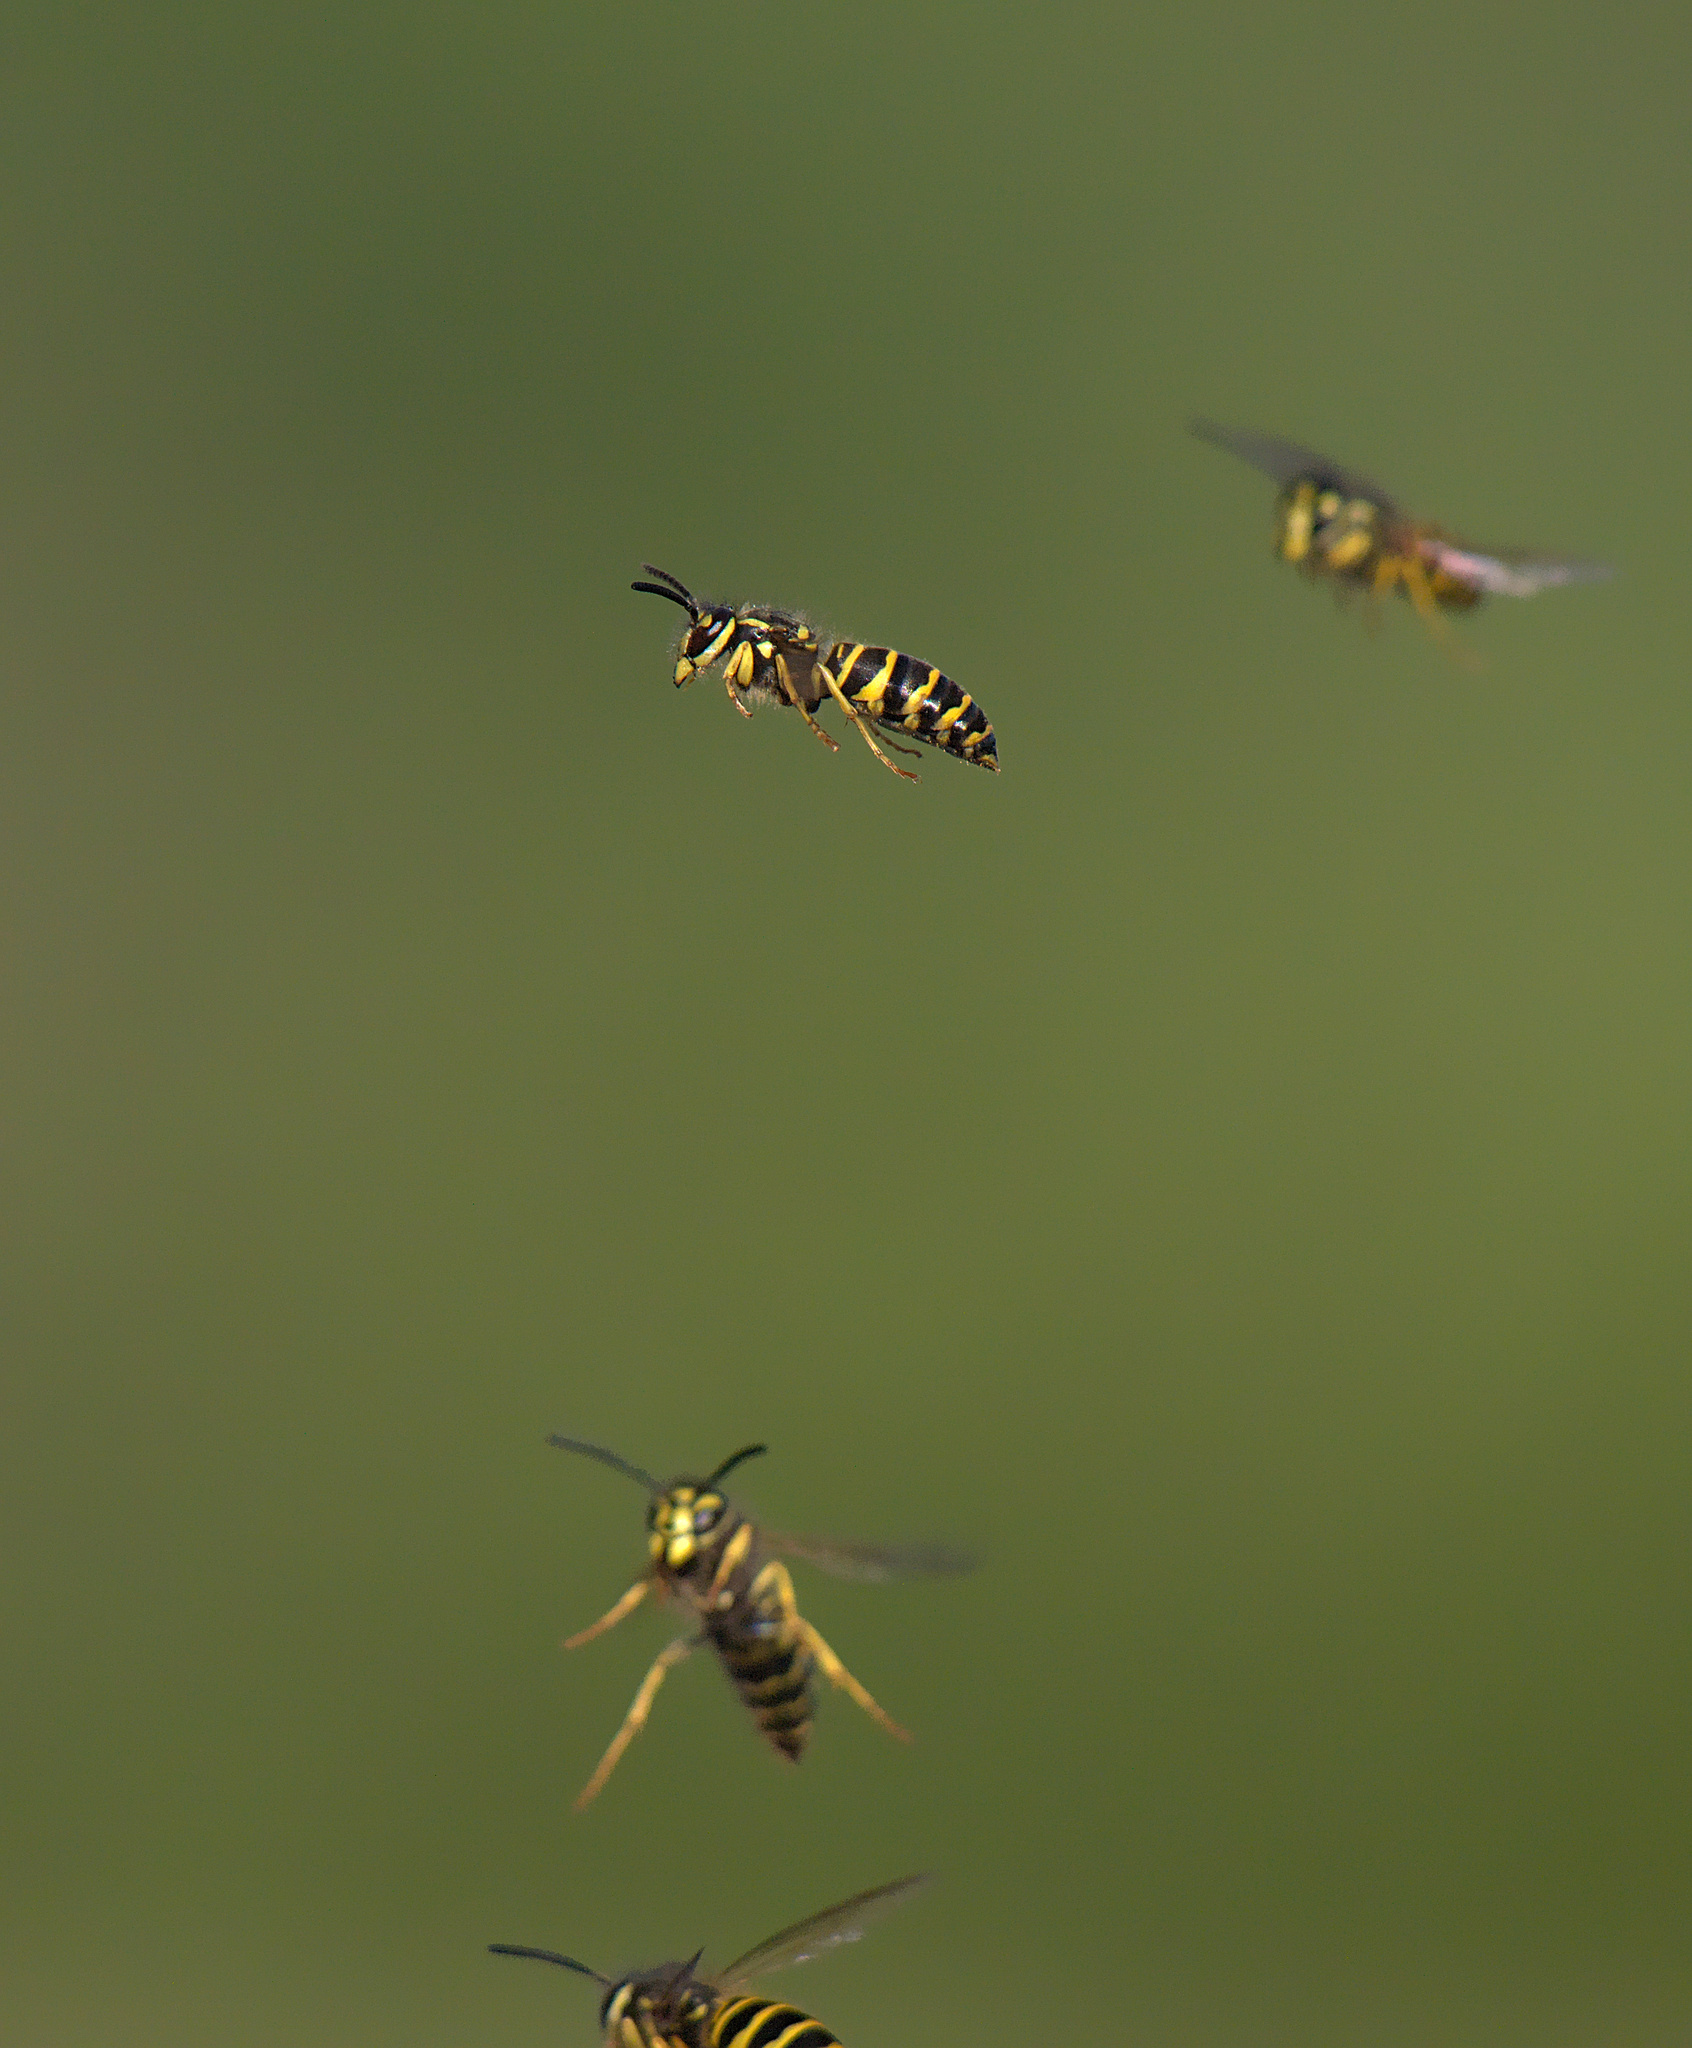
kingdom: Animalia
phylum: Arthropoda
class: Insecta
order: Hymenoptera
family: Vespidae
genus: Vespula
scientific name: Vespula maculifrons
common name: Eastern yellowjacket
